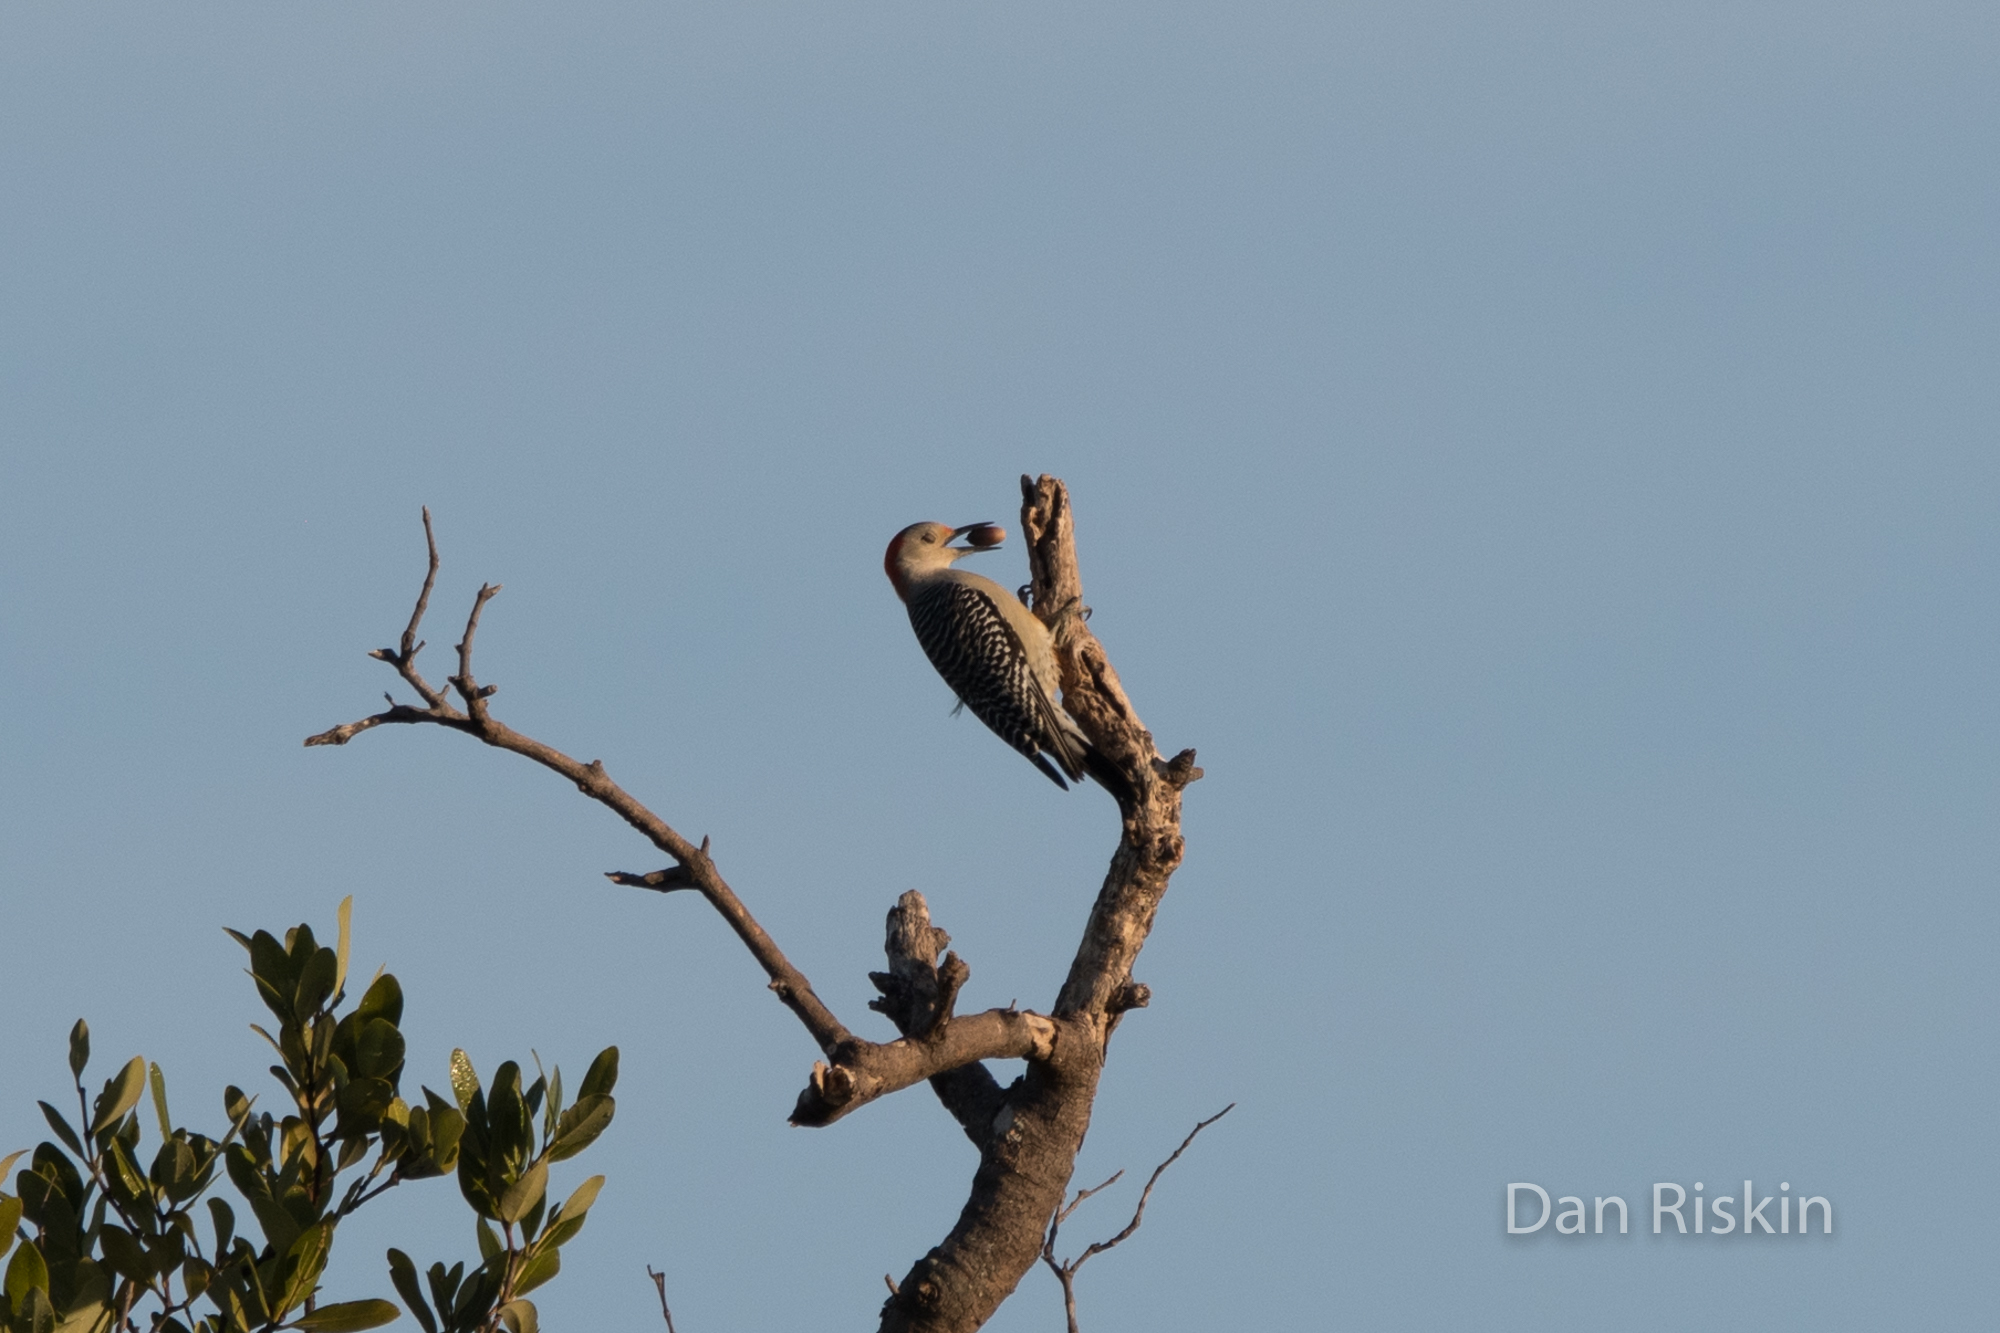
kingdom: Animalia
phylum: Chordata
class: Aves
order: Piciformes
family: Picidae
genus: Melanerpes
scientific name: Melanerpes carolinus
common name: Red-bellied woodpecker
